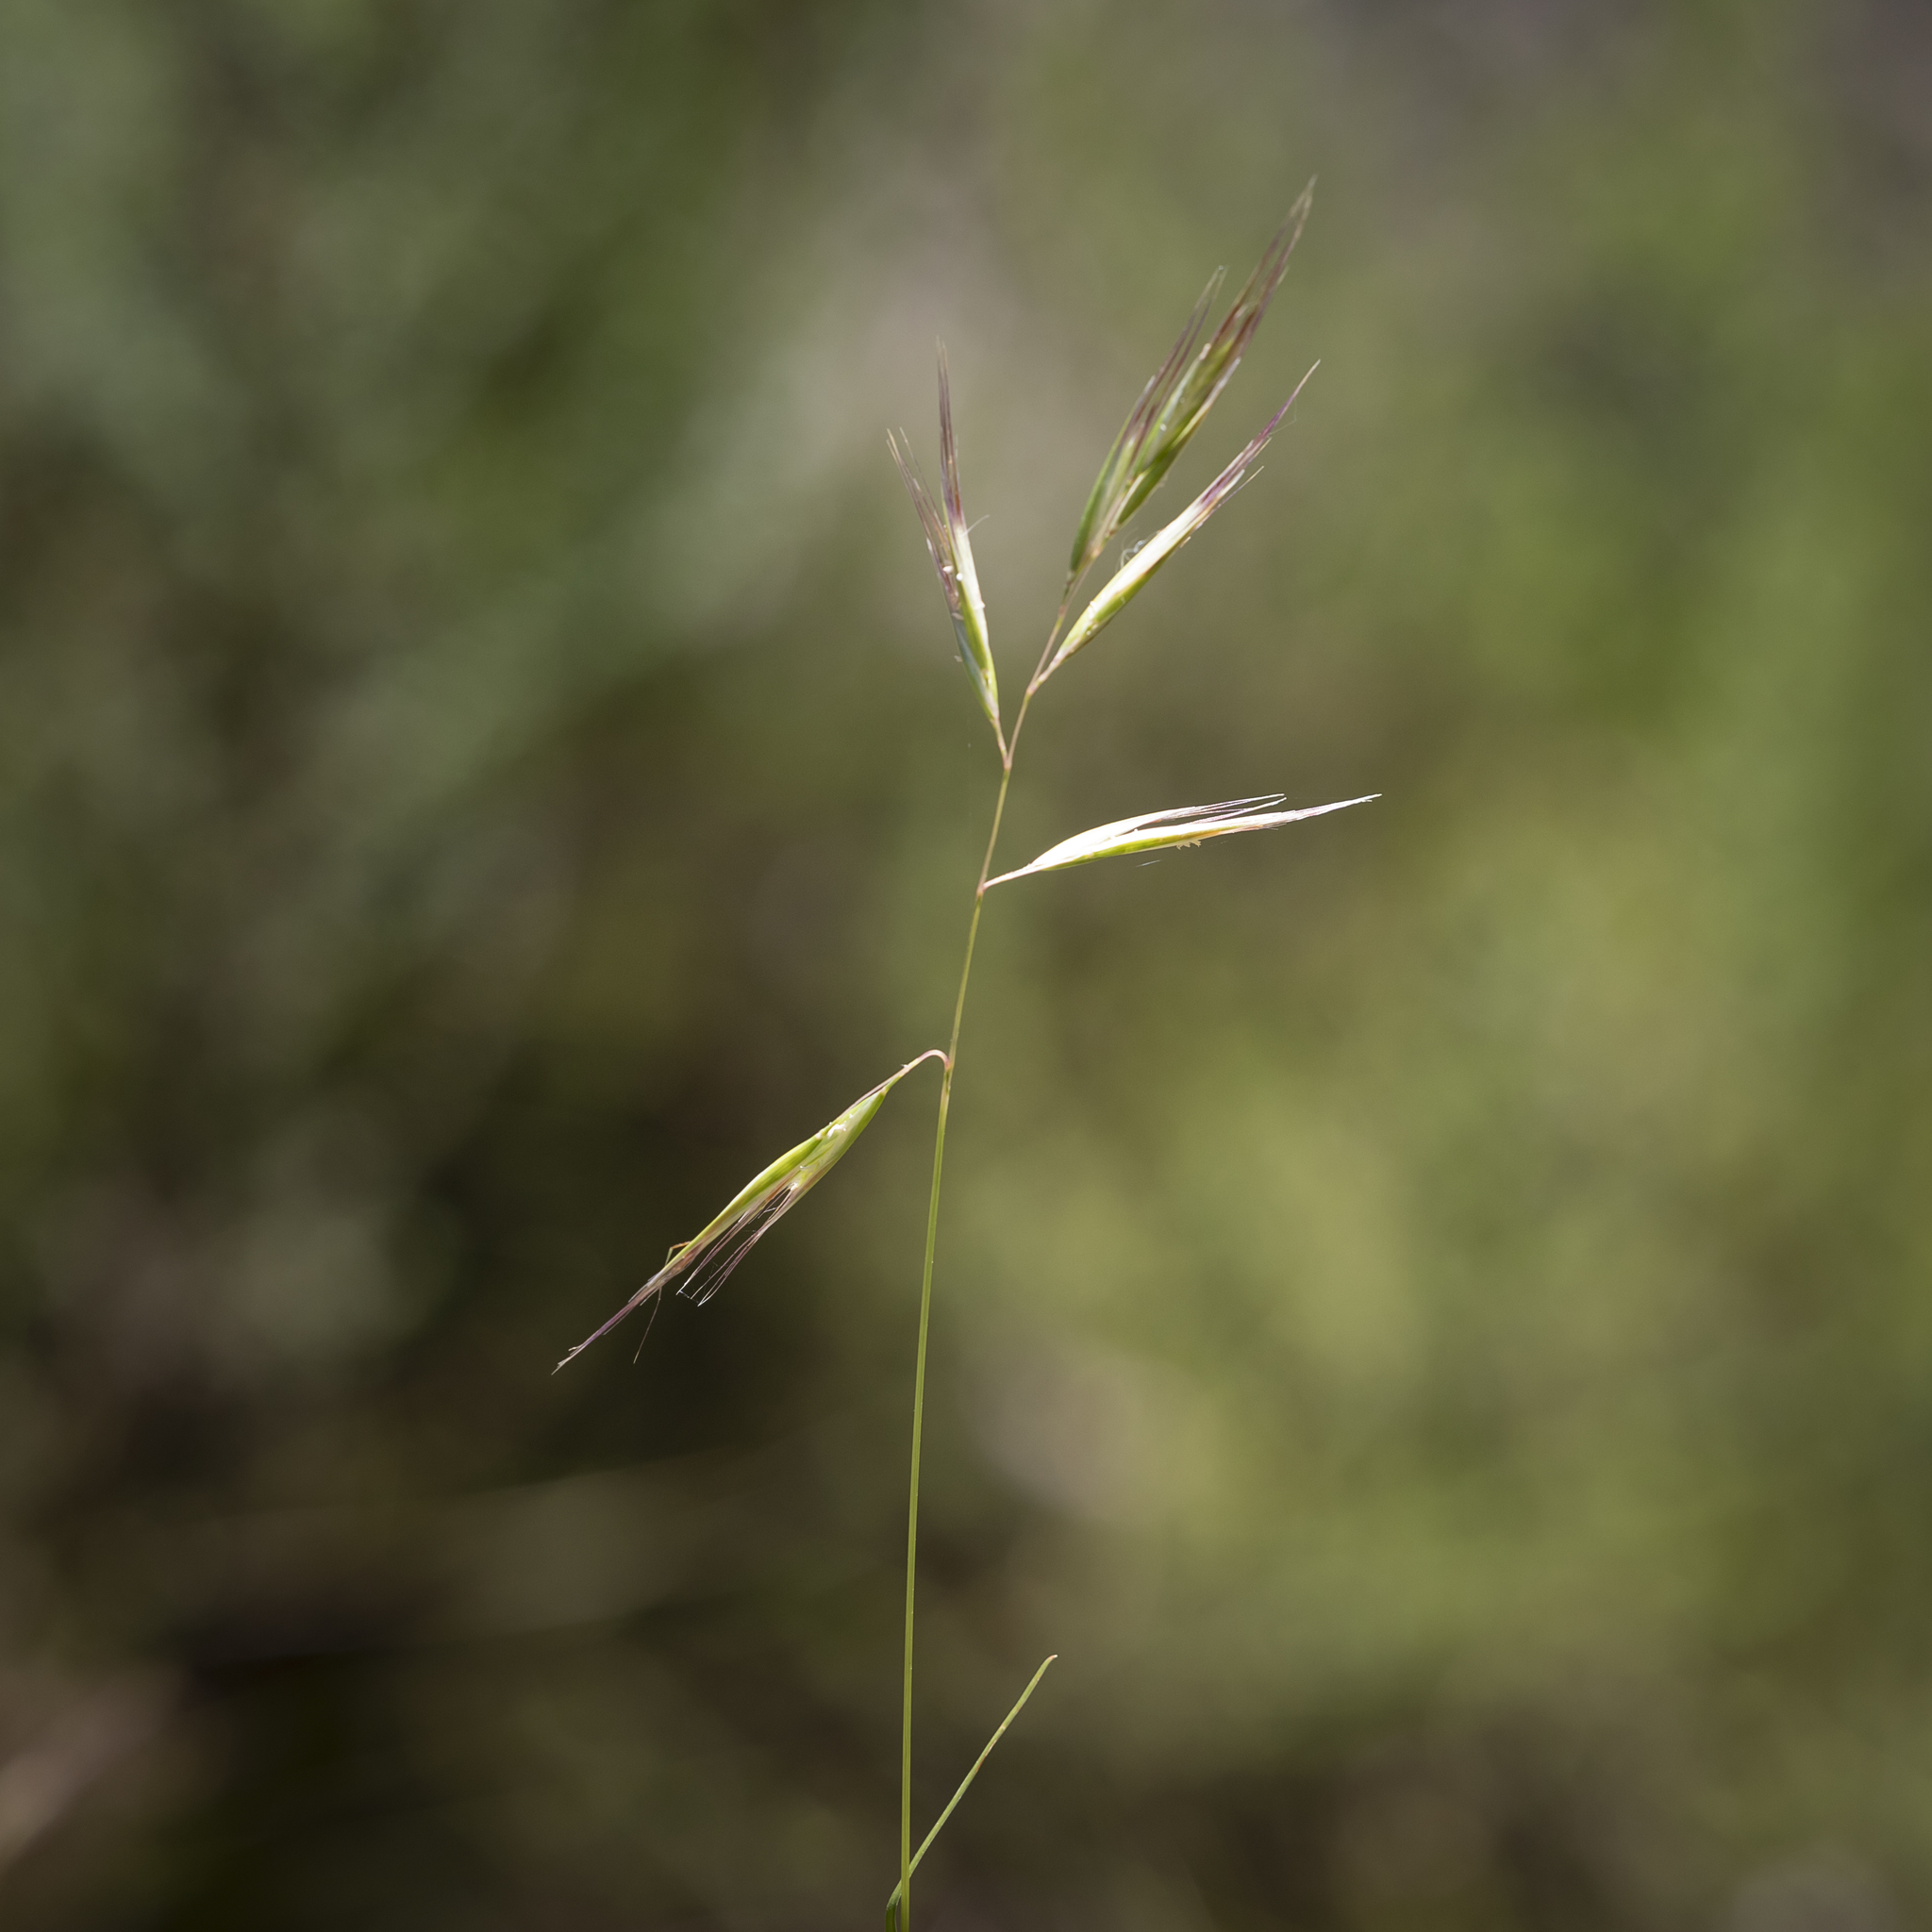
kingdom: Plantae
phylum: Tracheophyta
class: Liliopsida
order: Poales
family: Poaceae
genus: Rytidosperma
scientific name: Rytidosperma pilosum
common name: Hairy wallaby grass
